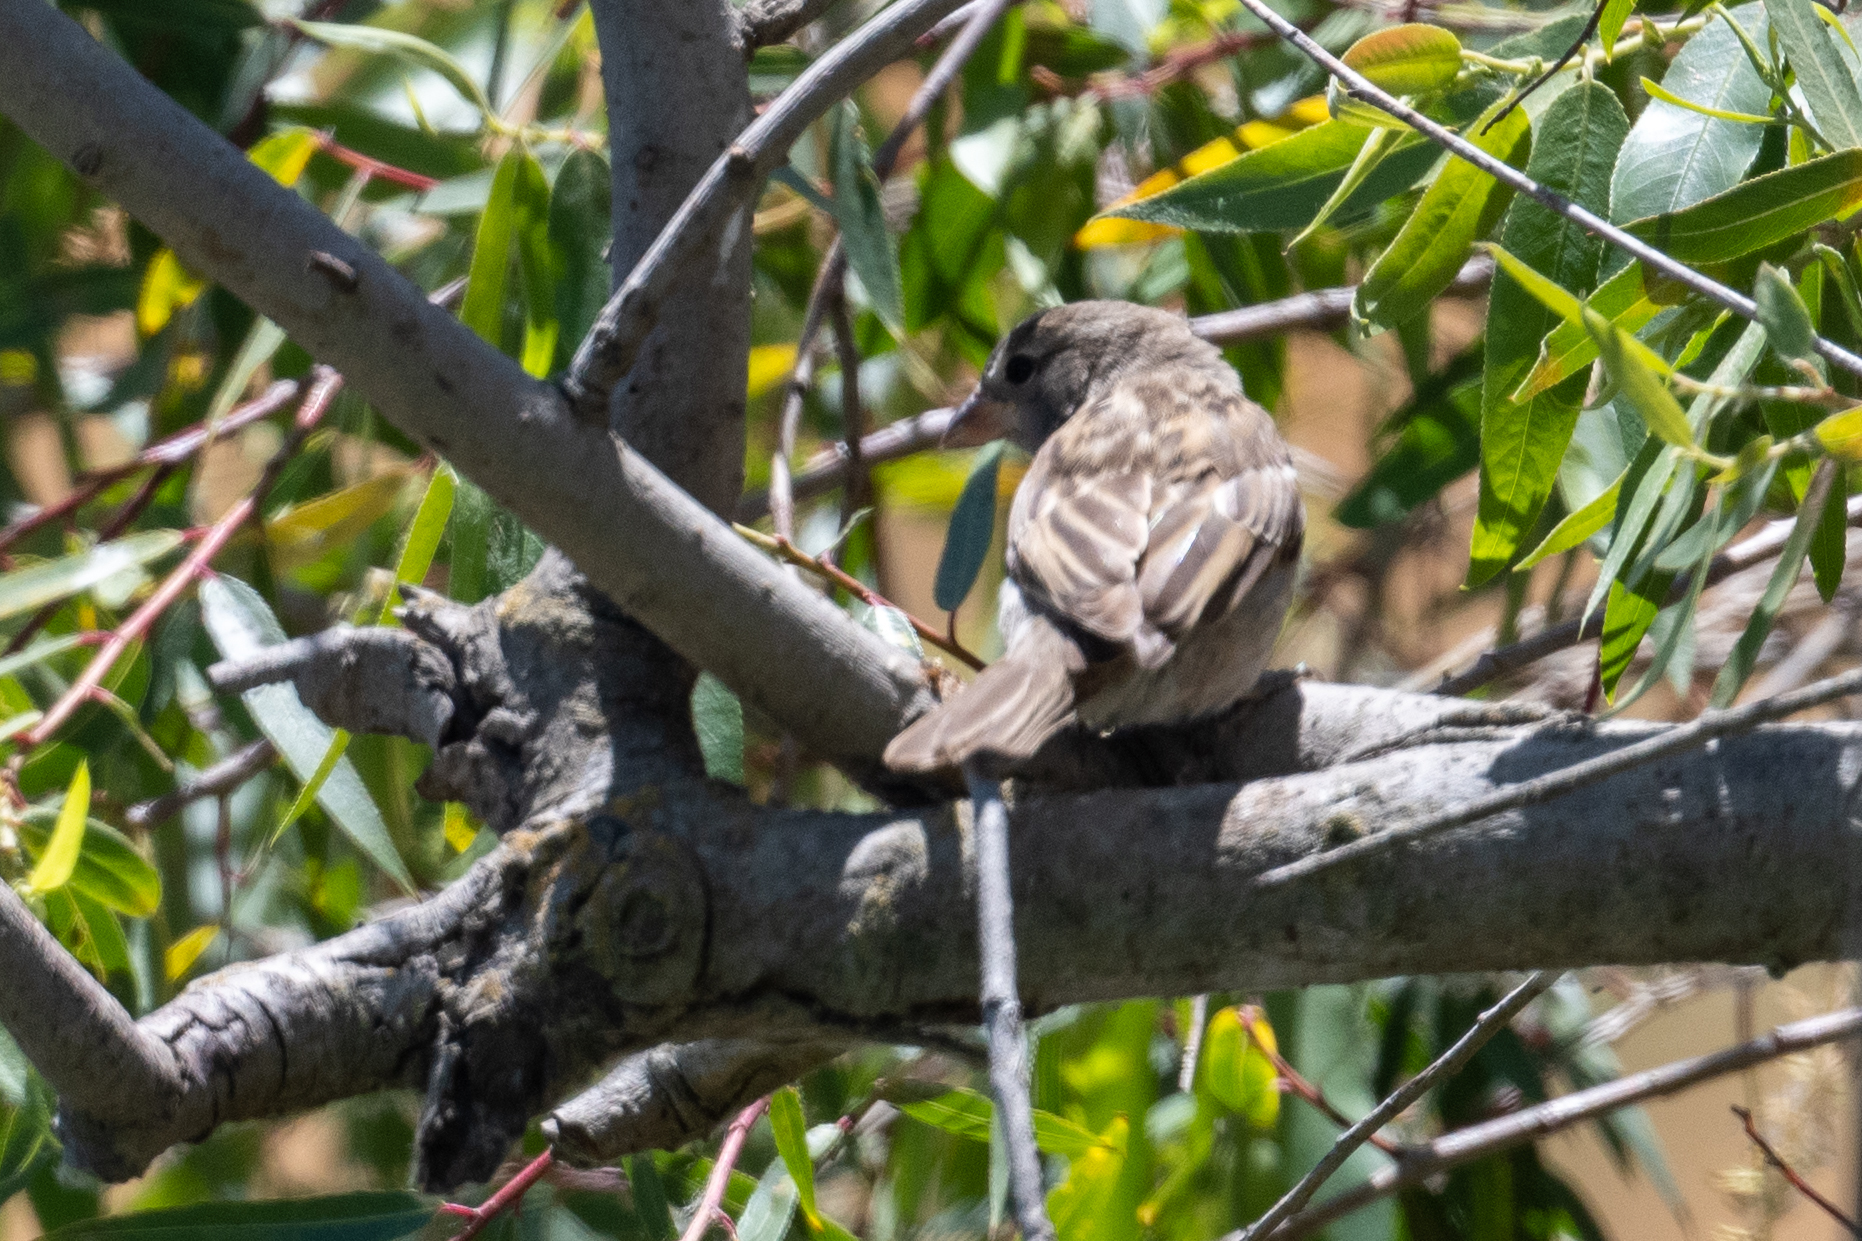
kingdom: Animalia
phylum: Chordata
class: Aves
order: Passeriformes
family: Passeridae
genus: Passer
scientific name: Passer domesticus
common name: House sparrow
